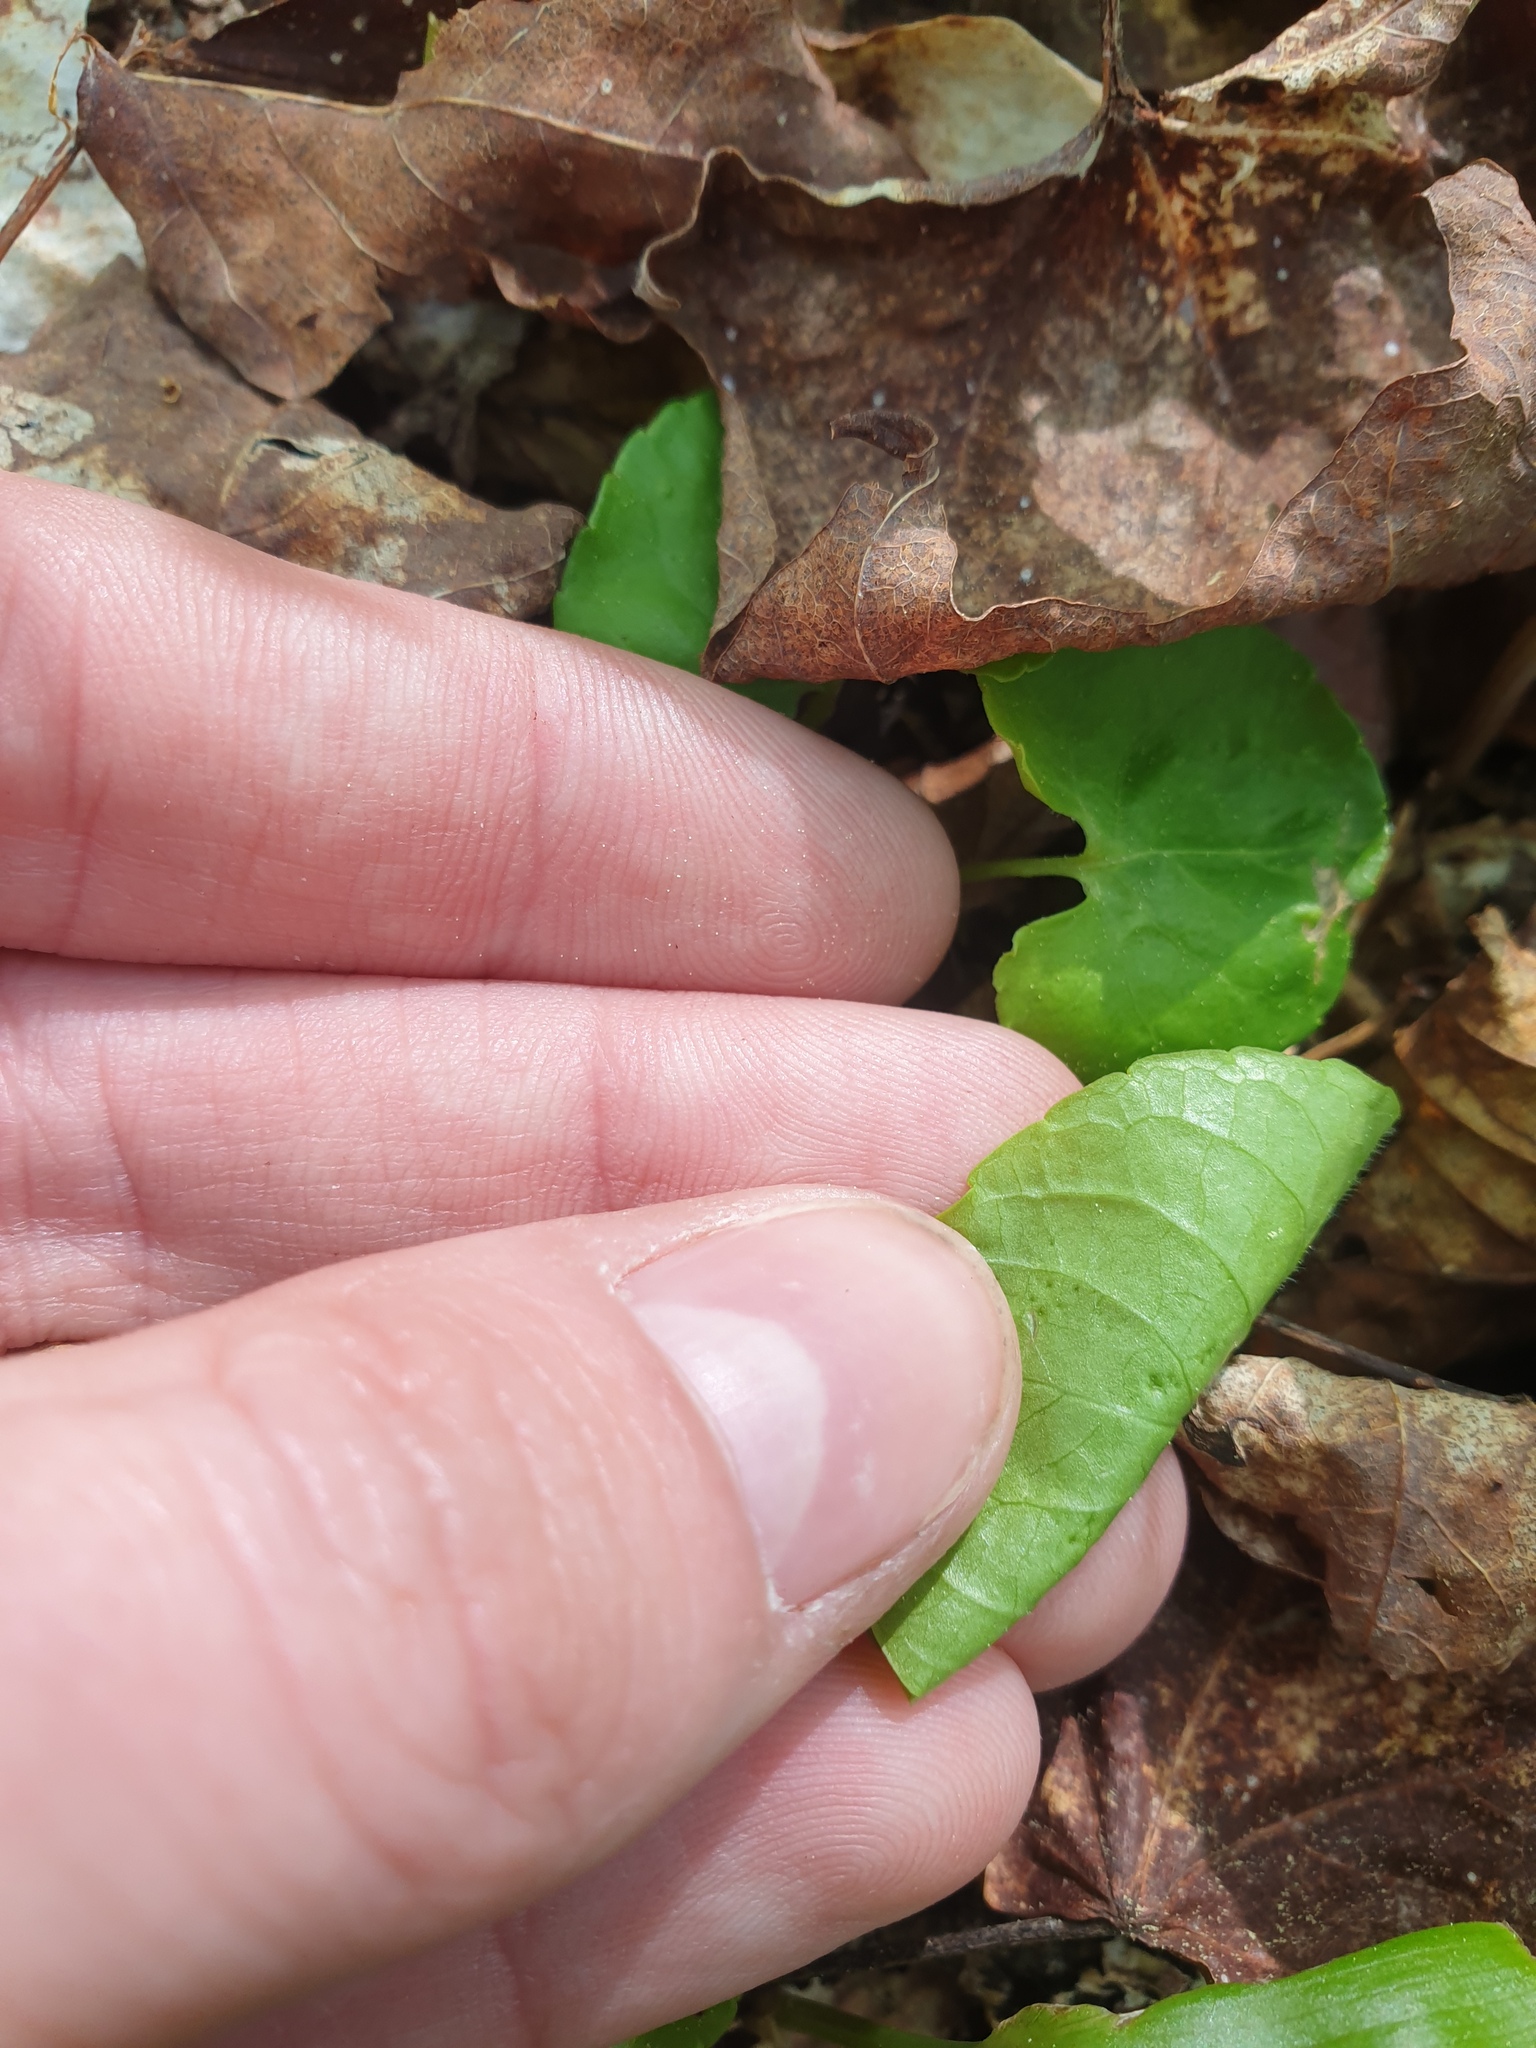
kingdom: Plantae
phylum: Tracheophyta
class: Magnoliopsida
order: Malpighiales
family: Violaceae
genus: Viola
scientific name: Viola incognita
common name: Largeleaf white violet
